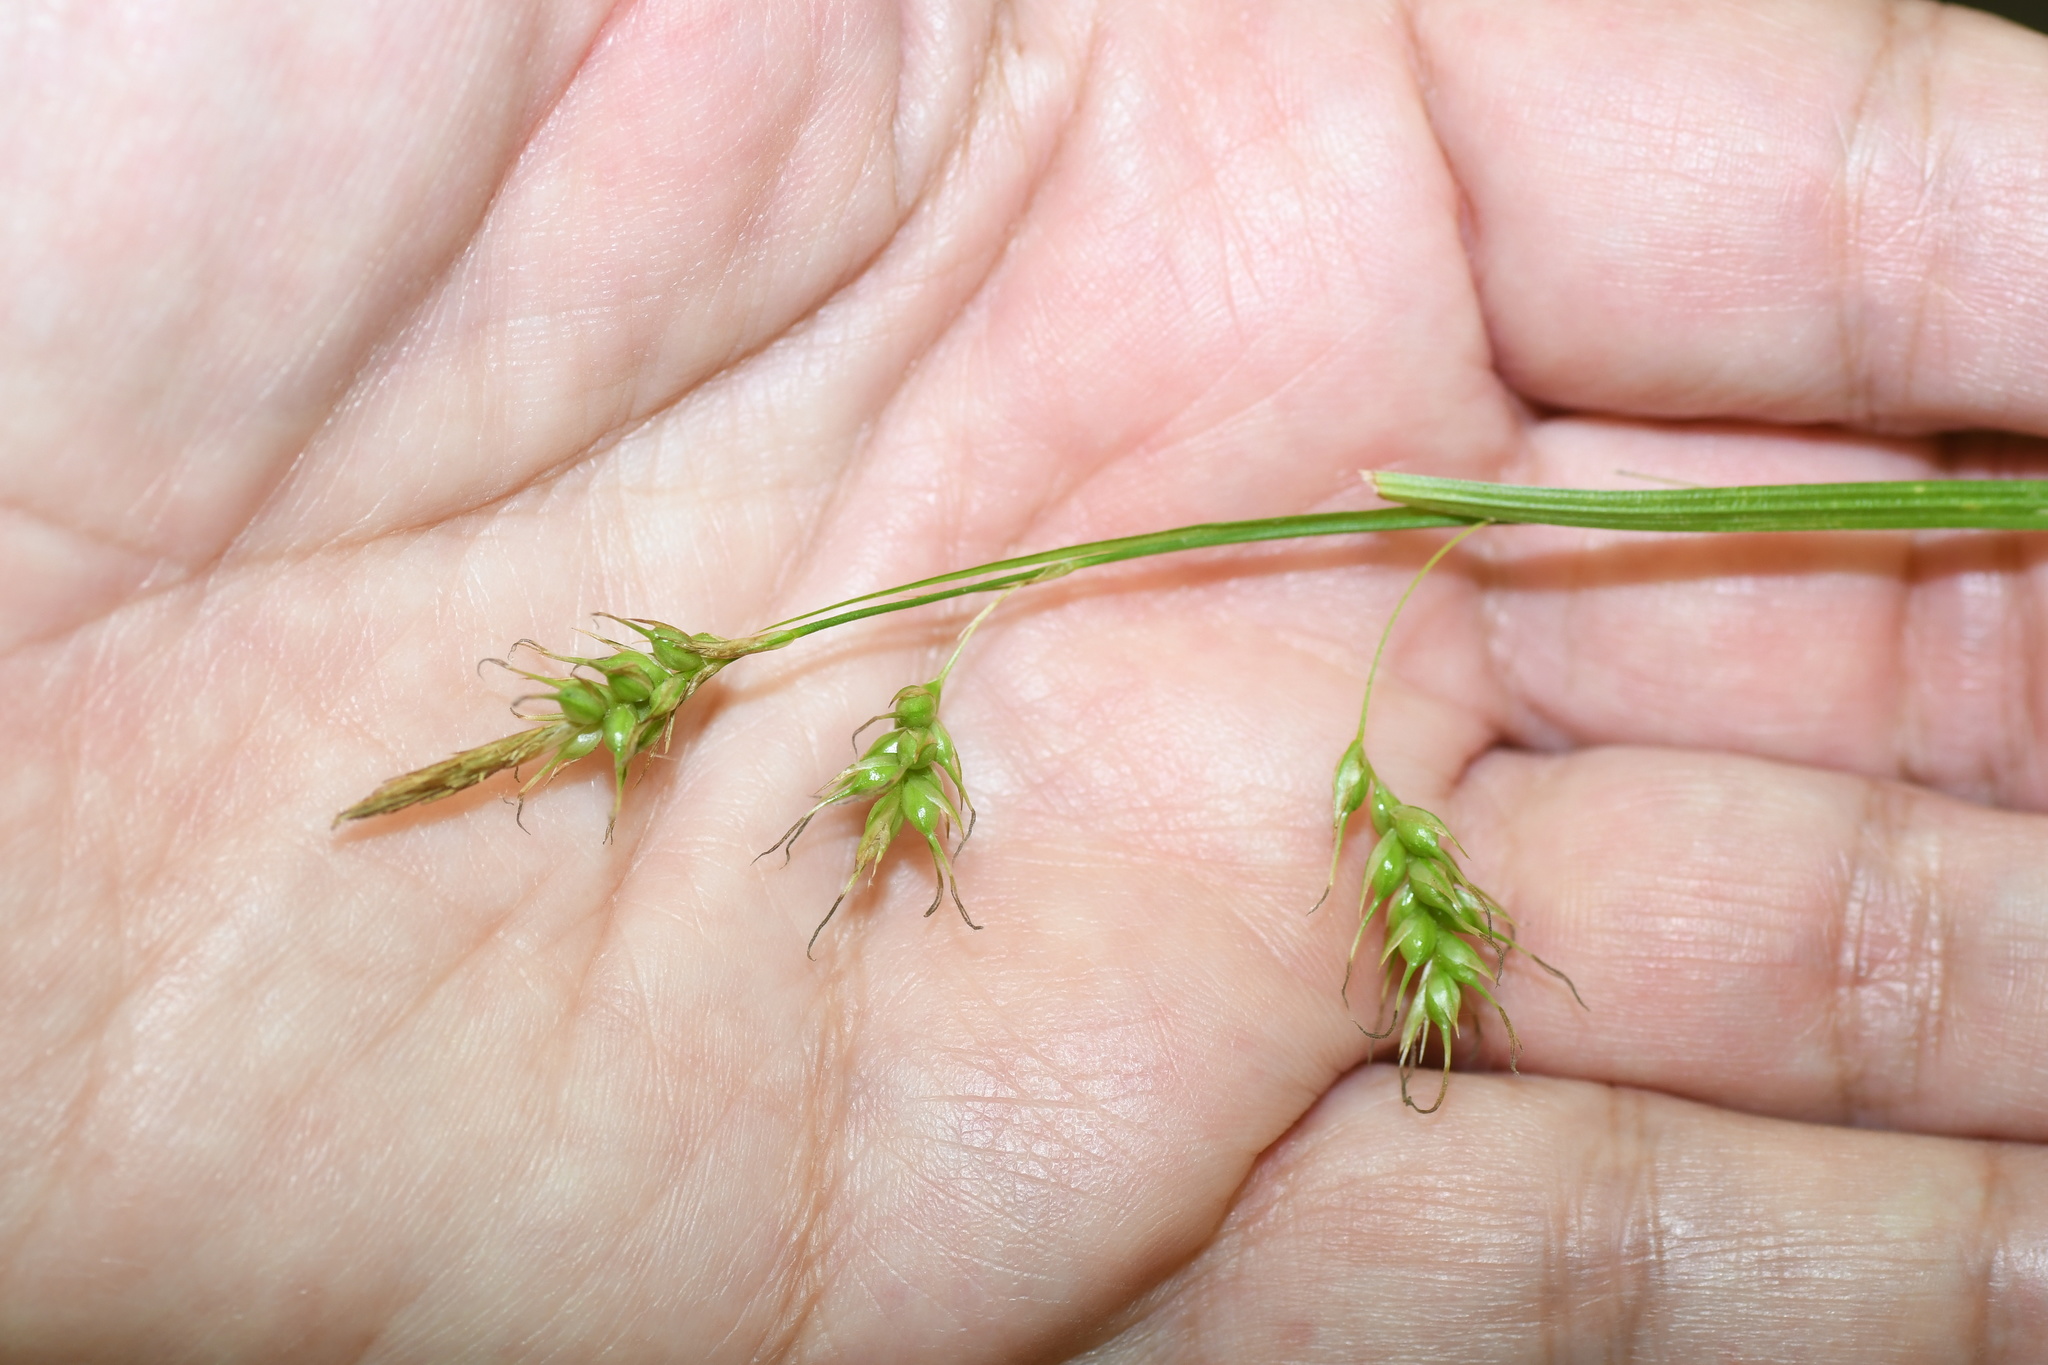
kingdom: Plantae
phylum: Tracheophyta
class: Liliopsida
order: Poales
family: Cyperaceae
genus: Carex
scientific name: Carex sprengelii
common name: Long-beaked sedge
